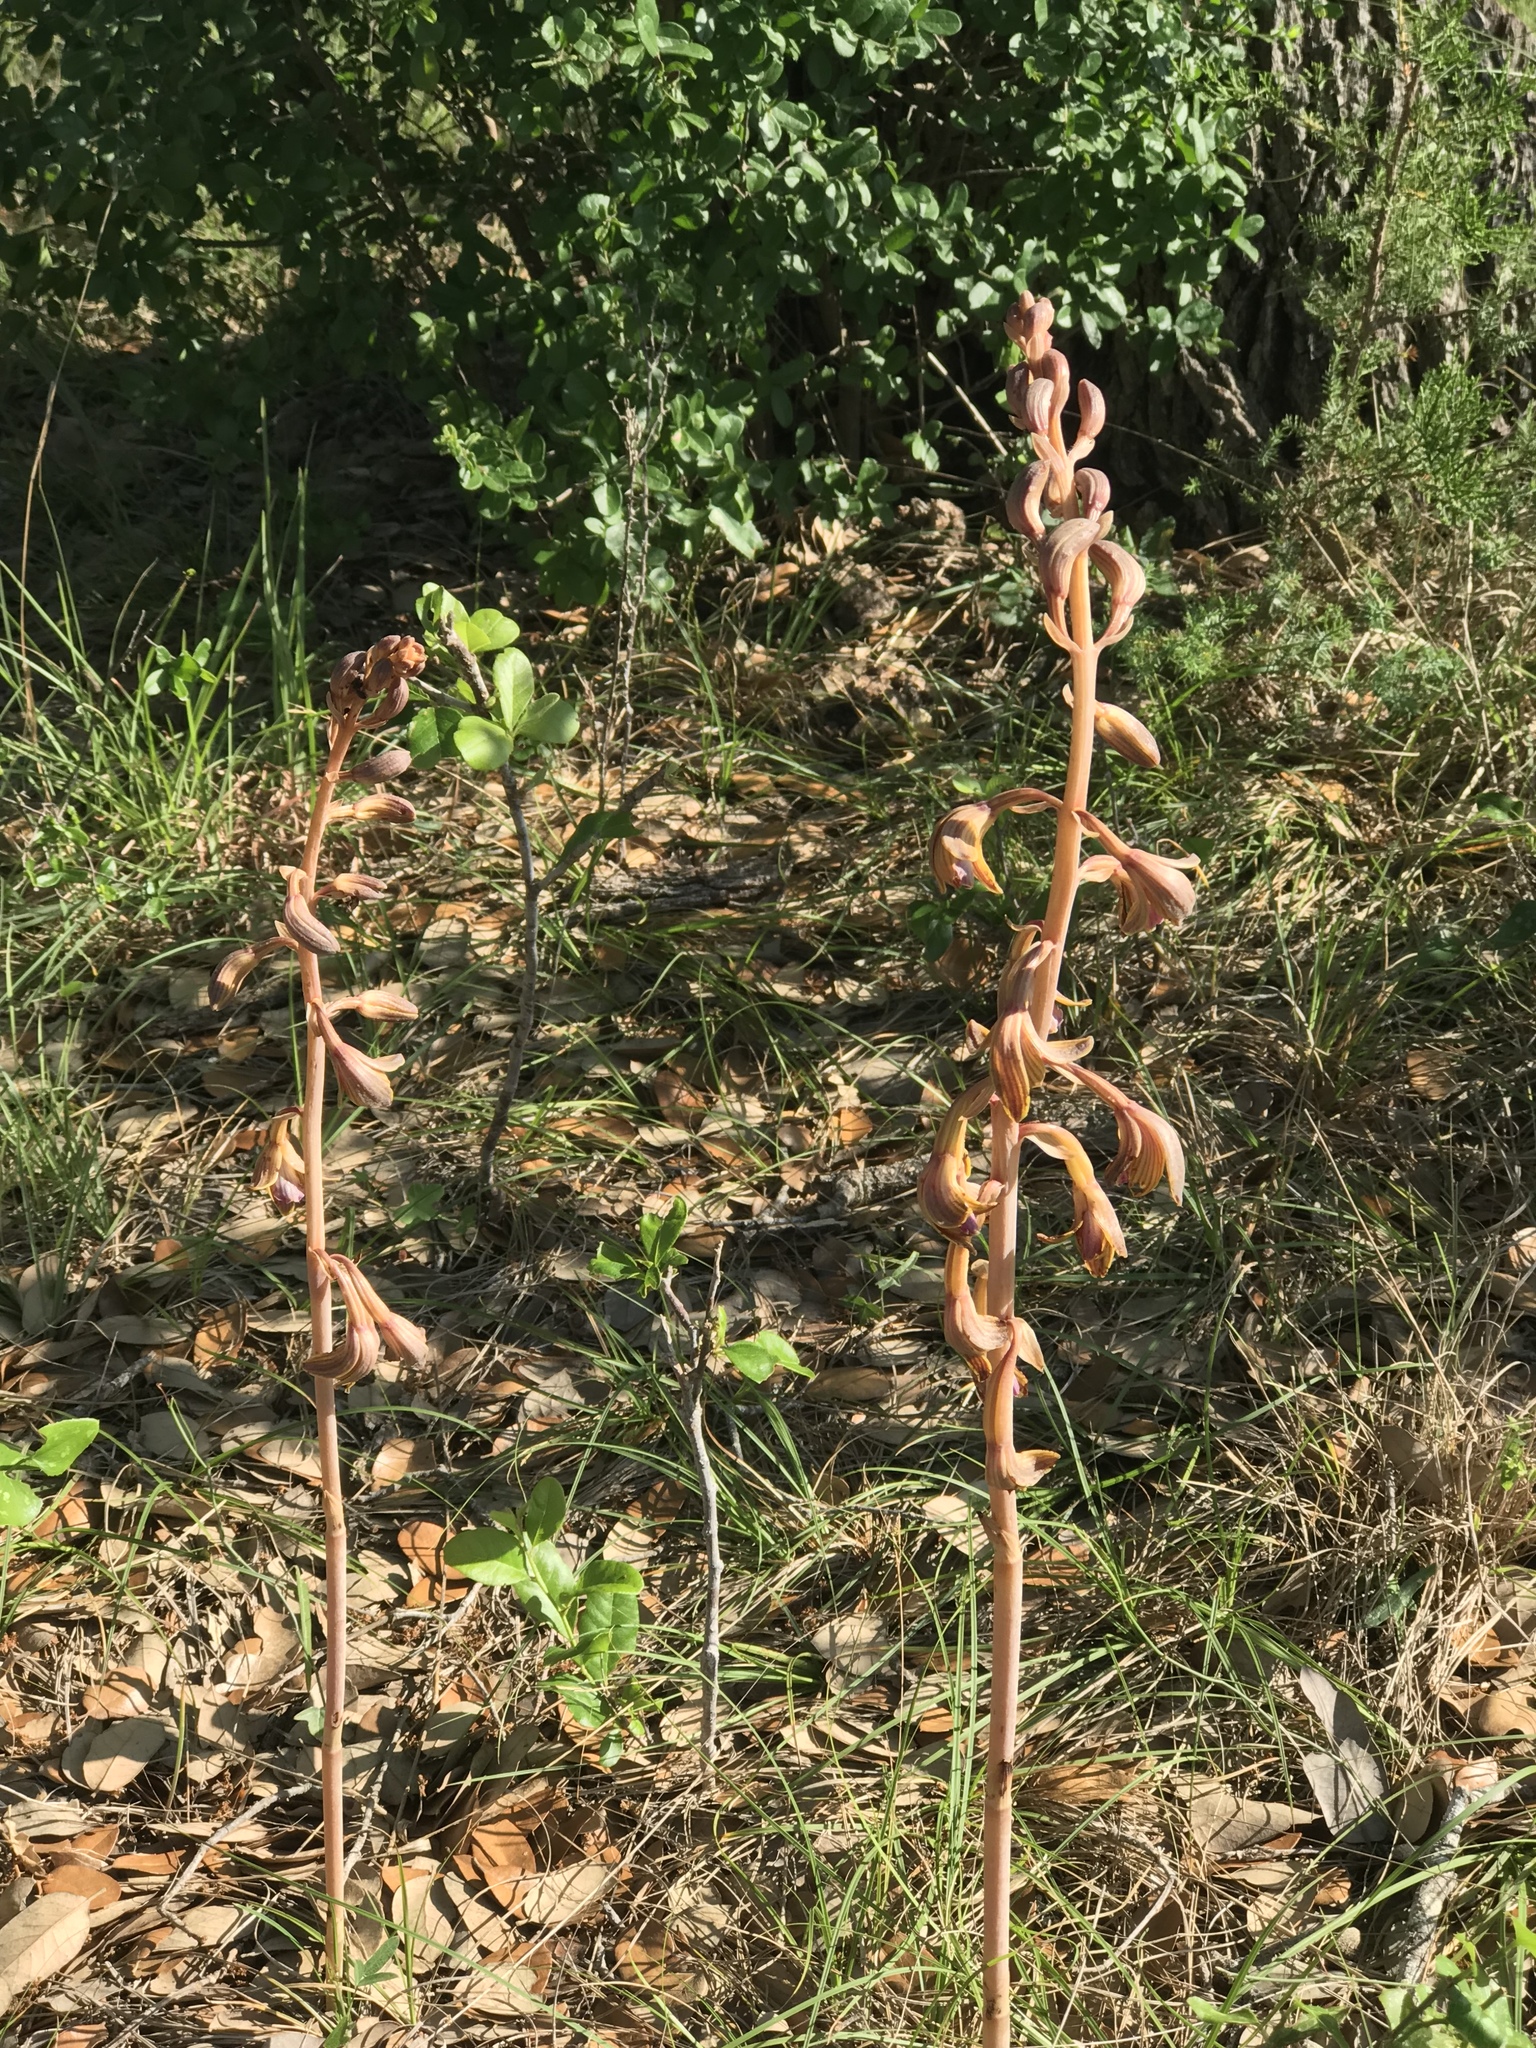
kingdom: Plantae
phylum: Tracheophyta
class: Liliopsida
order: Asparagales
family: Orchidaceae
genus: Bletia
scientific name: Bletia spicata
